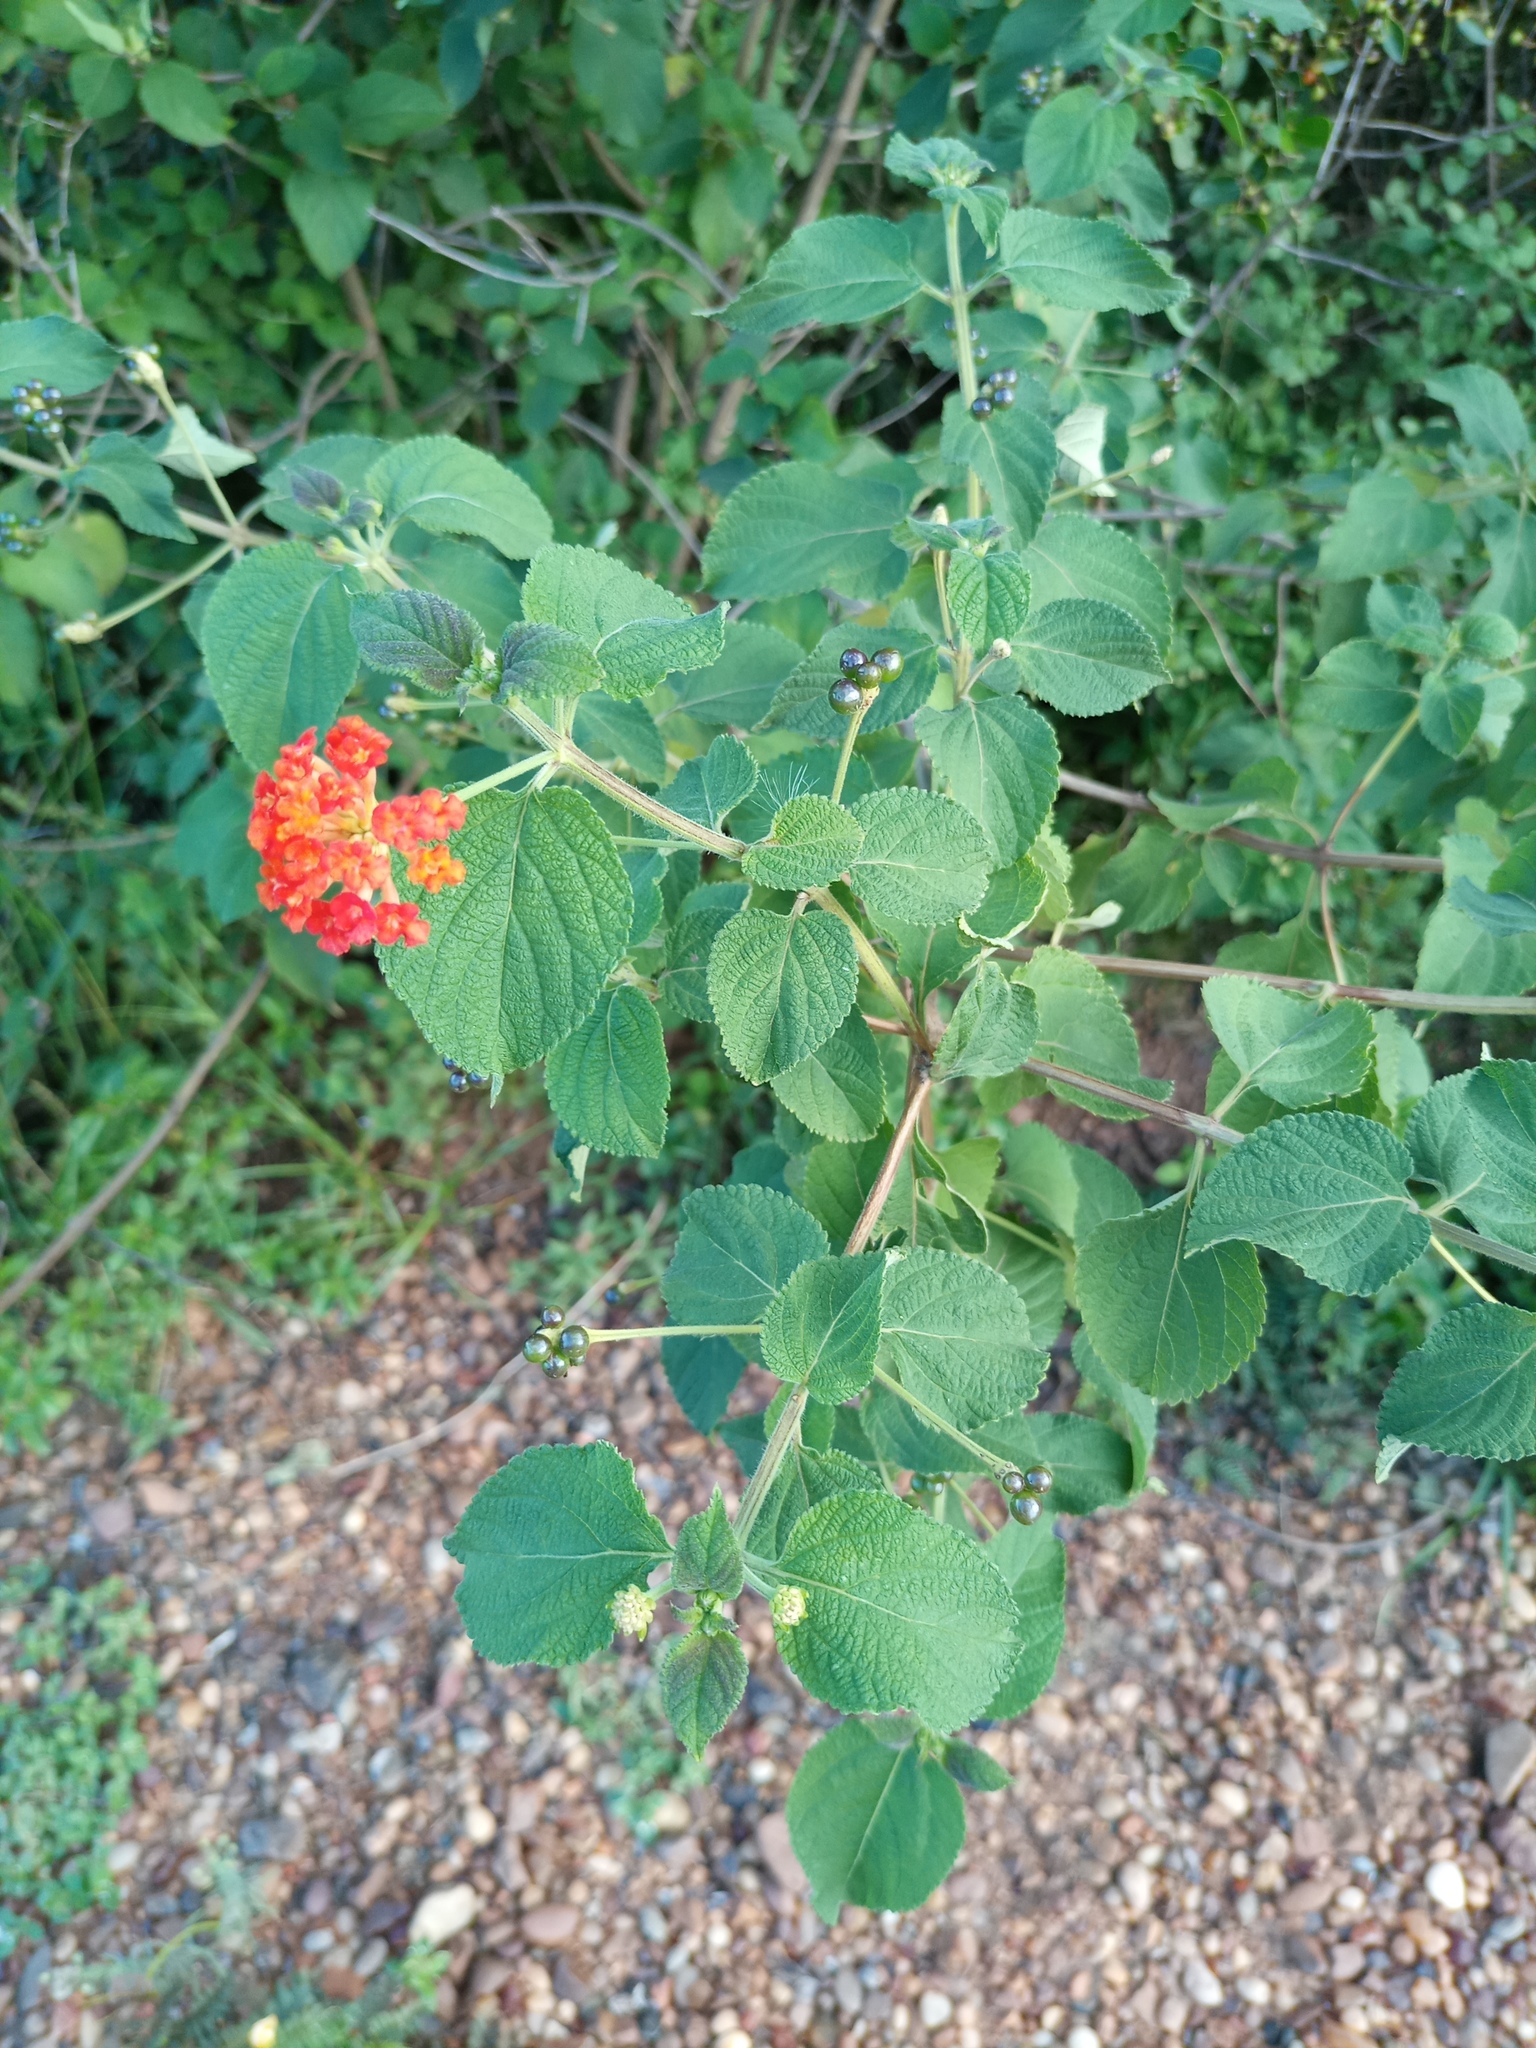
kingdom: Plantae
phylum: Tracheophyta
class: Magnoliopsida
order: Lamiales
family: Verbenaceae
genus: Lantana
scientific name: Lantana camara
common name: Lantana
